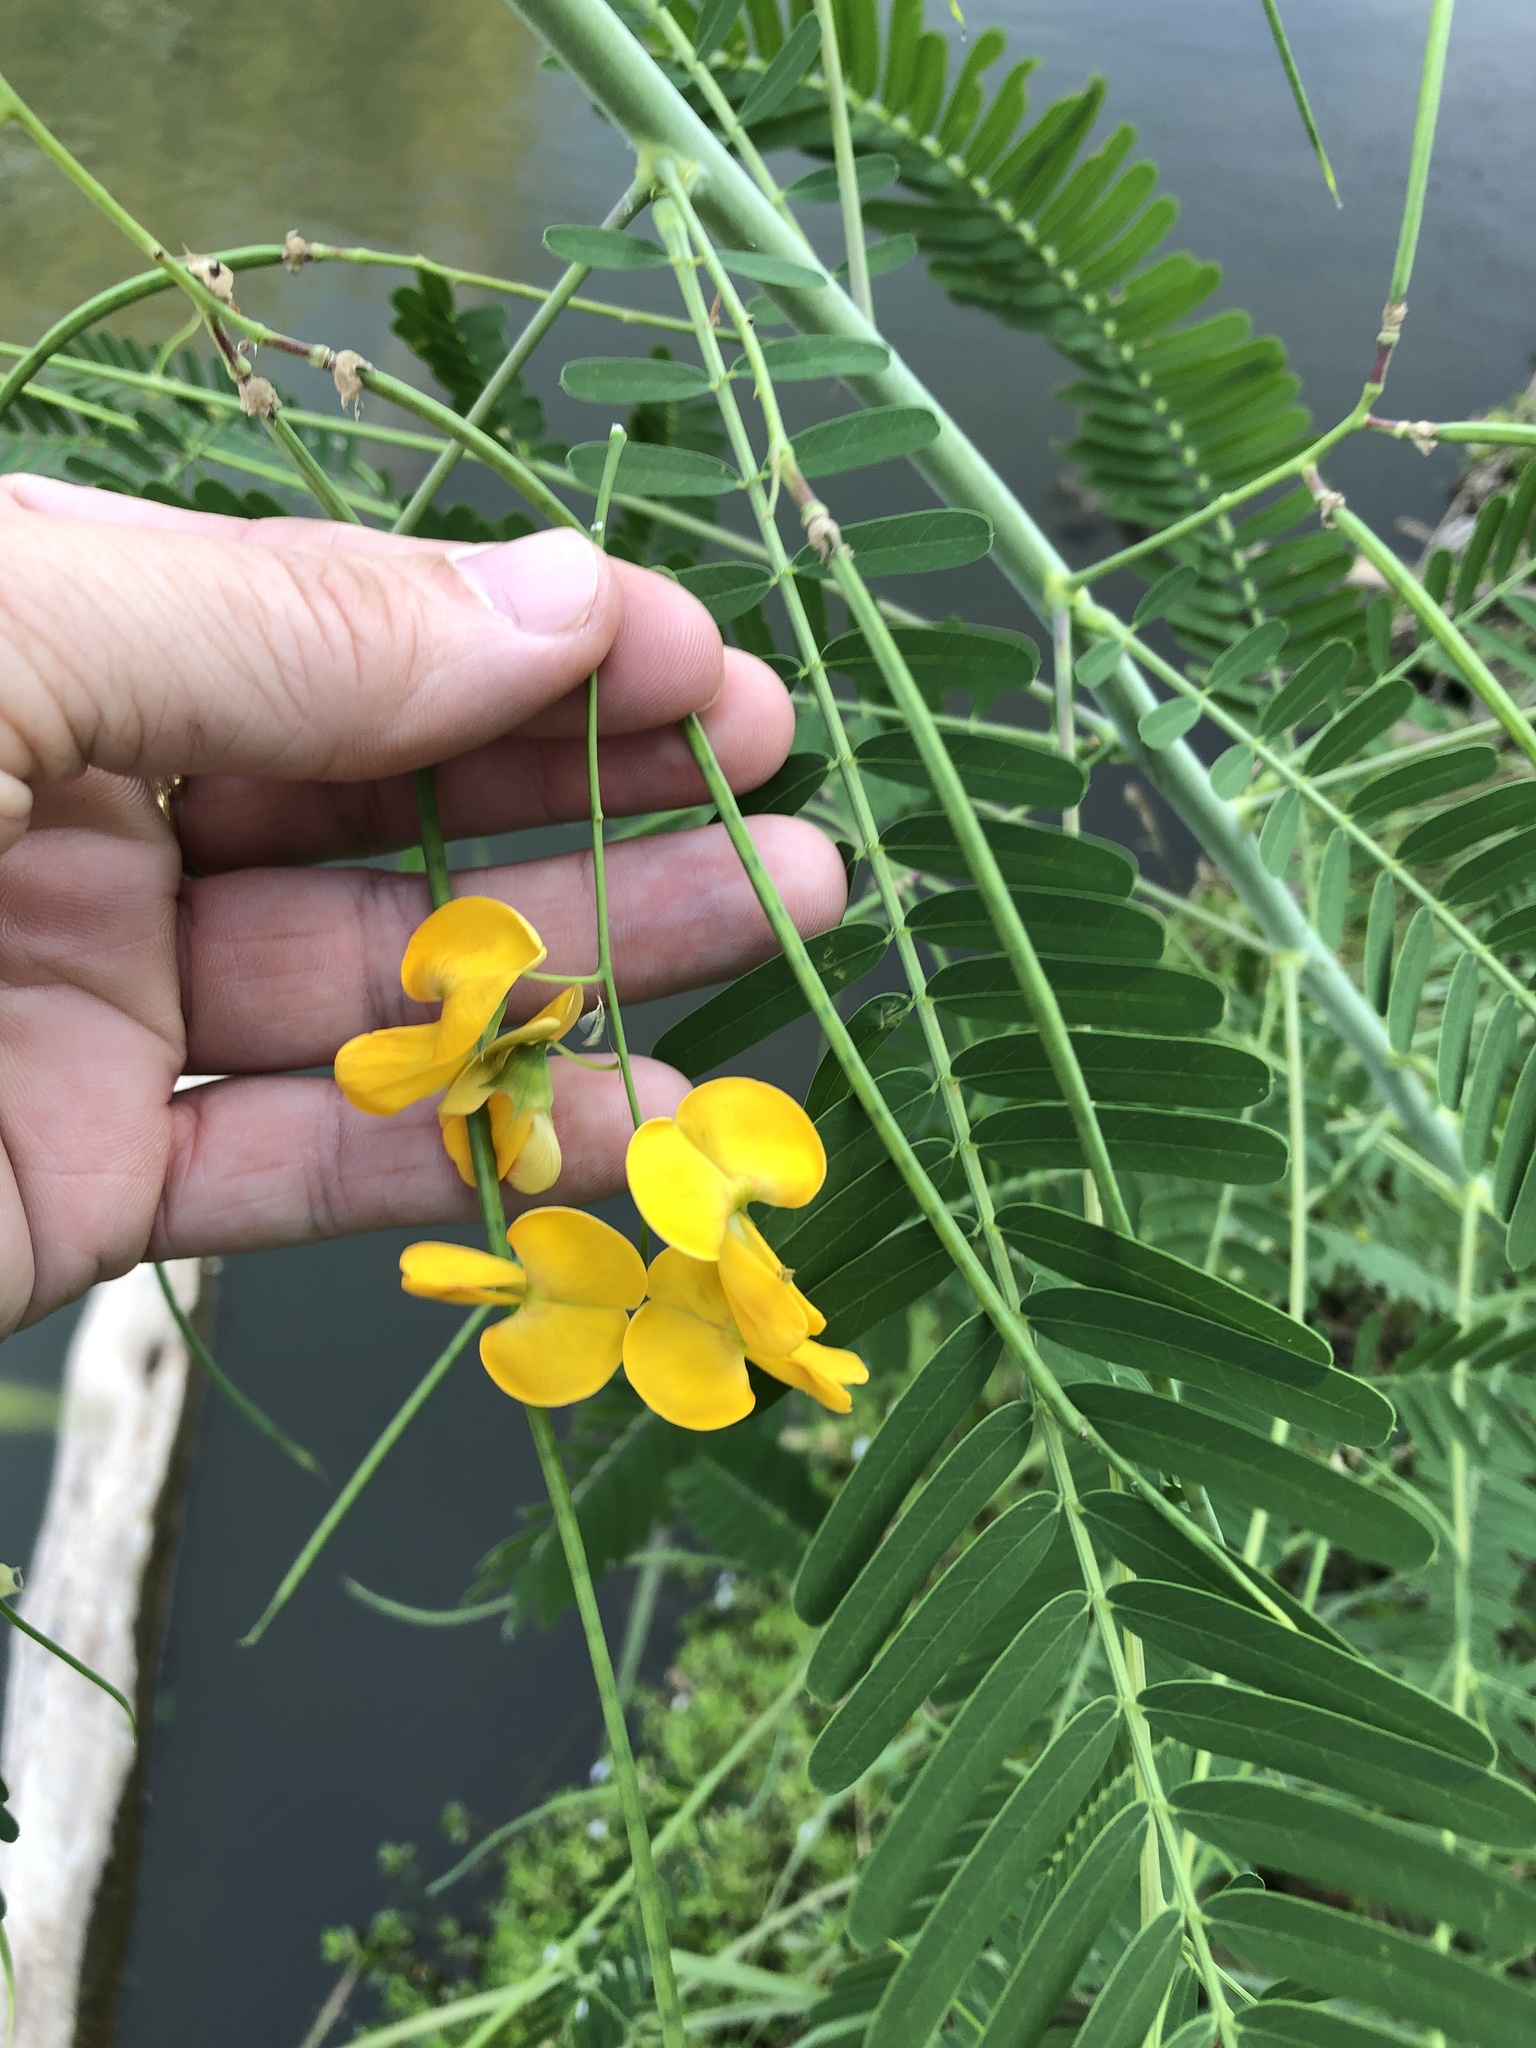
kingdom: Plantae
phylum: Tracheophyta
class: Magnoliopsida
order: Fabales
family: Fabaceae
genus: Sesbania
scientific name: Sesbania herbacea
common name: Bigpod sesbania
